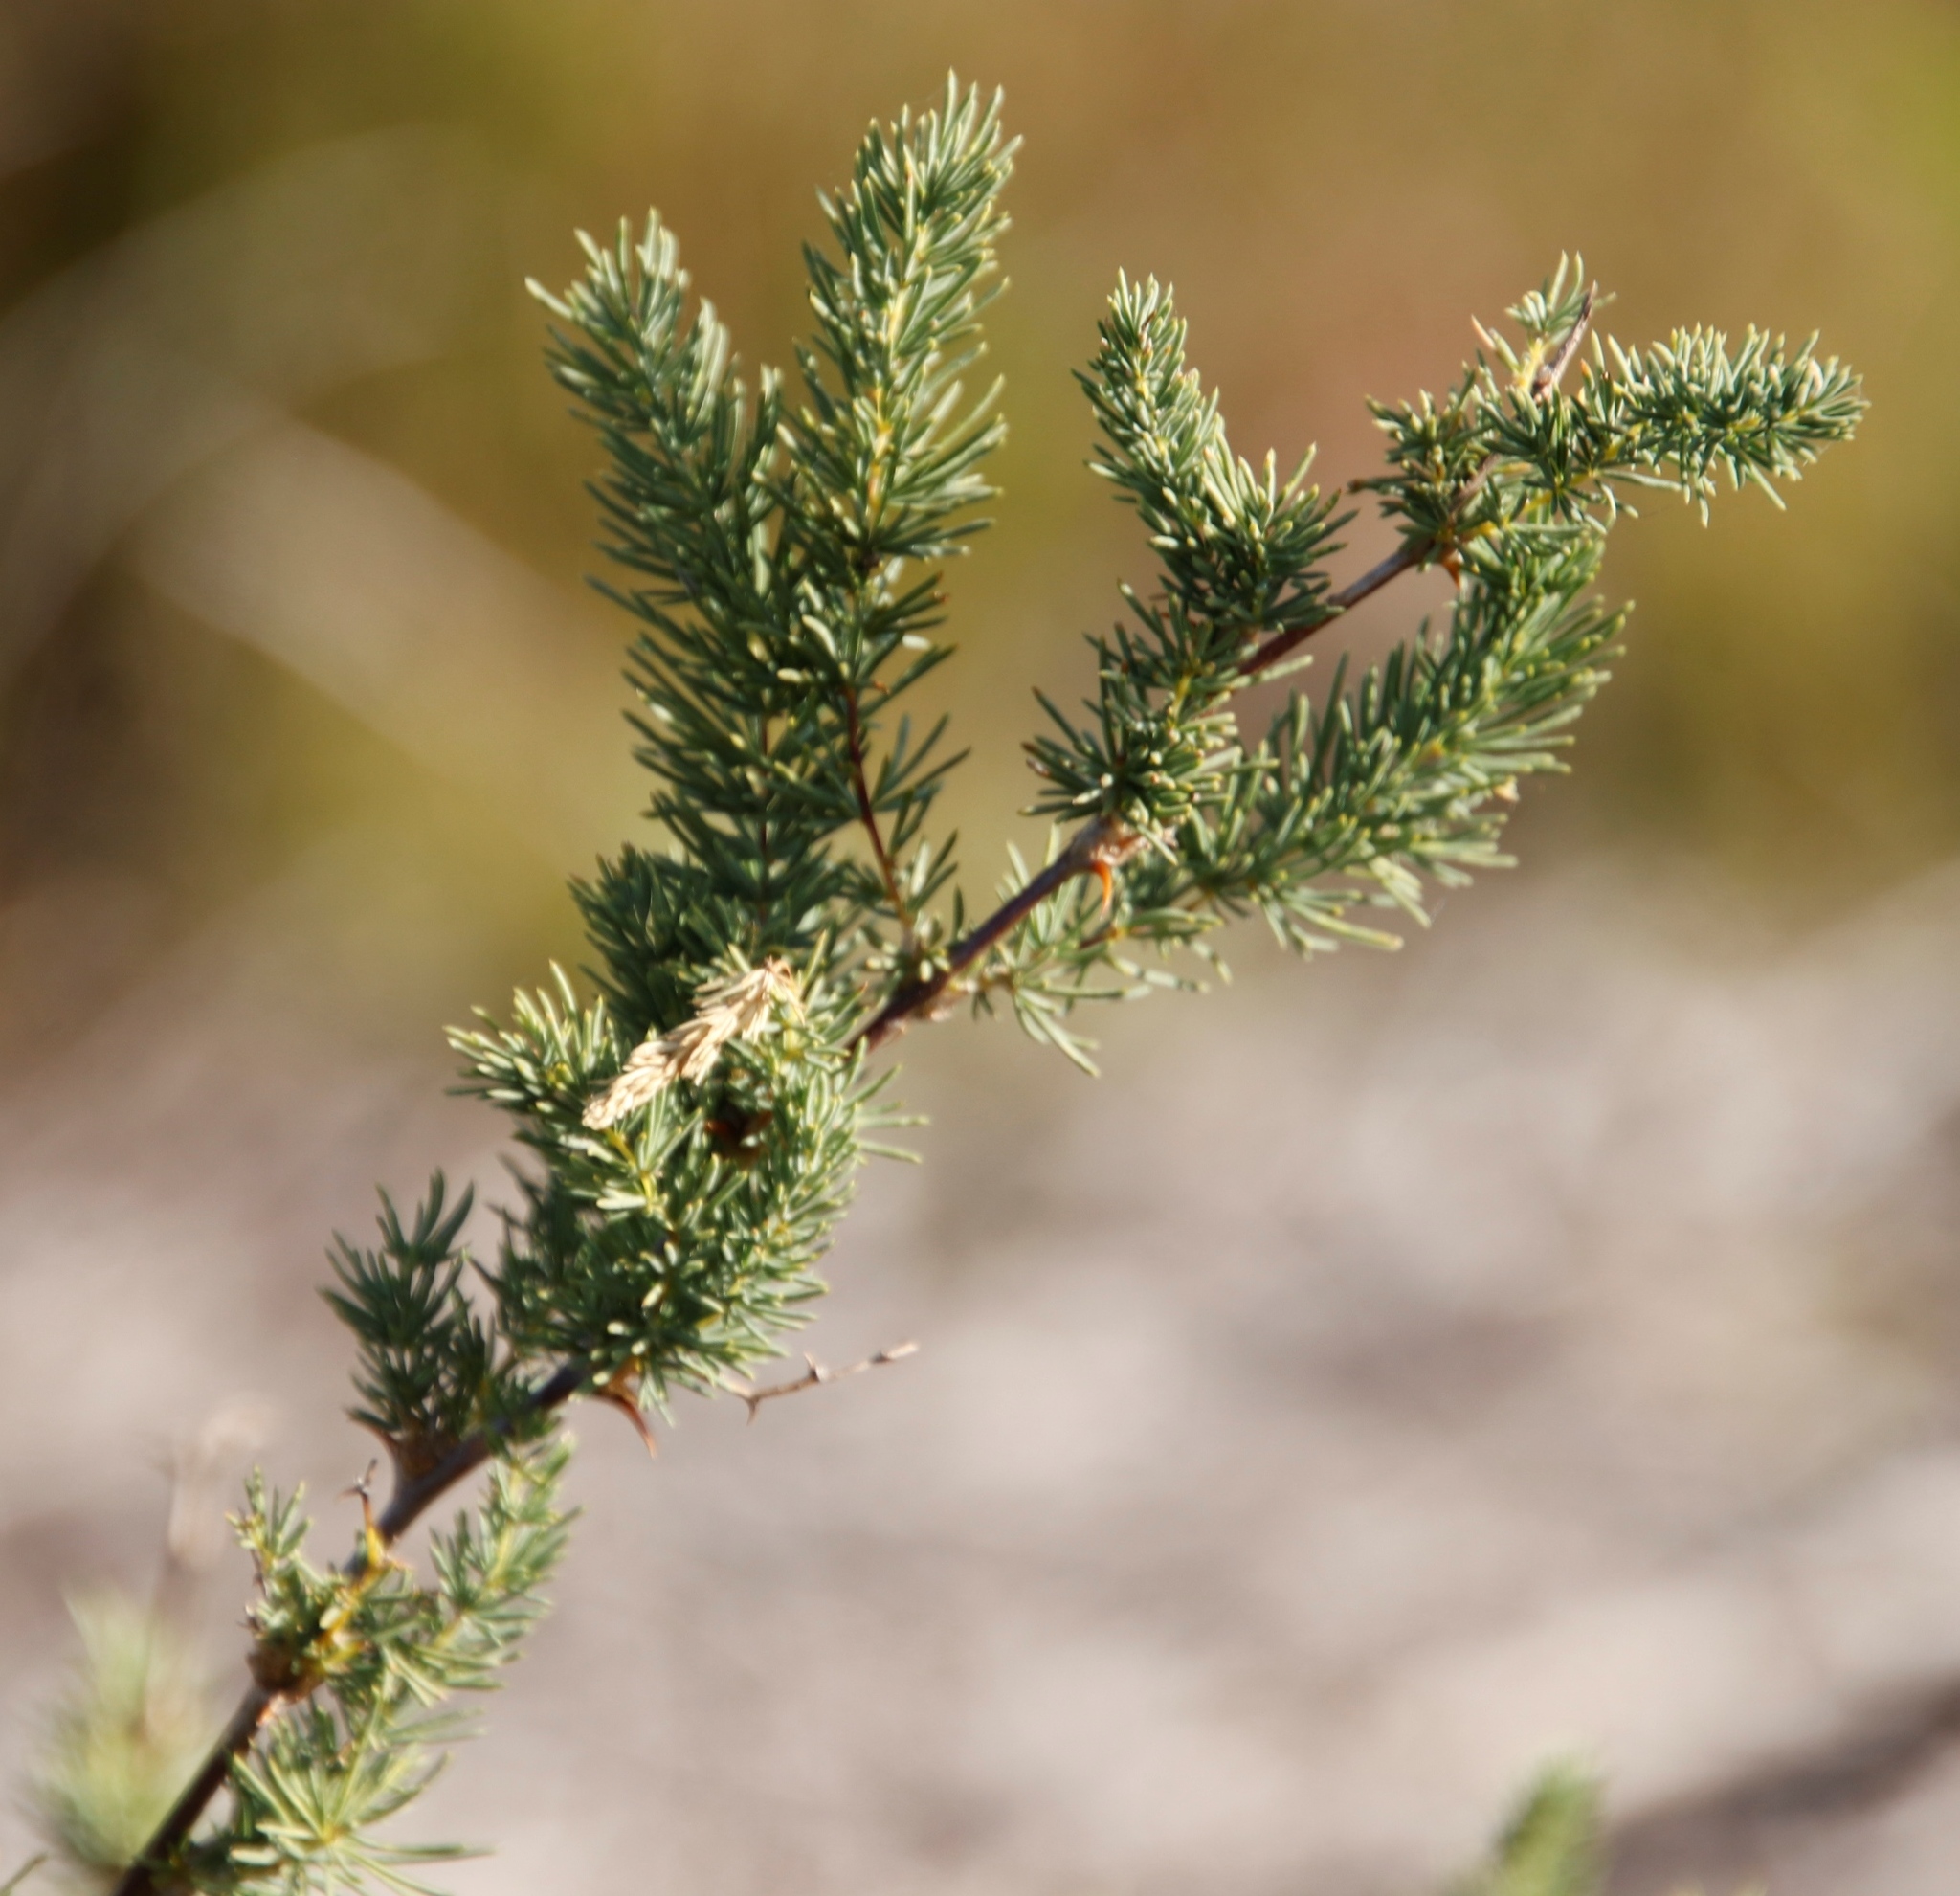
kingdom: Plantae
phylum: Tracheophyta
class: Liliopsida
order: Asparagales
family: Asparagaceae
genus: Asparagus
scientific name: Asparagus rubicundus
